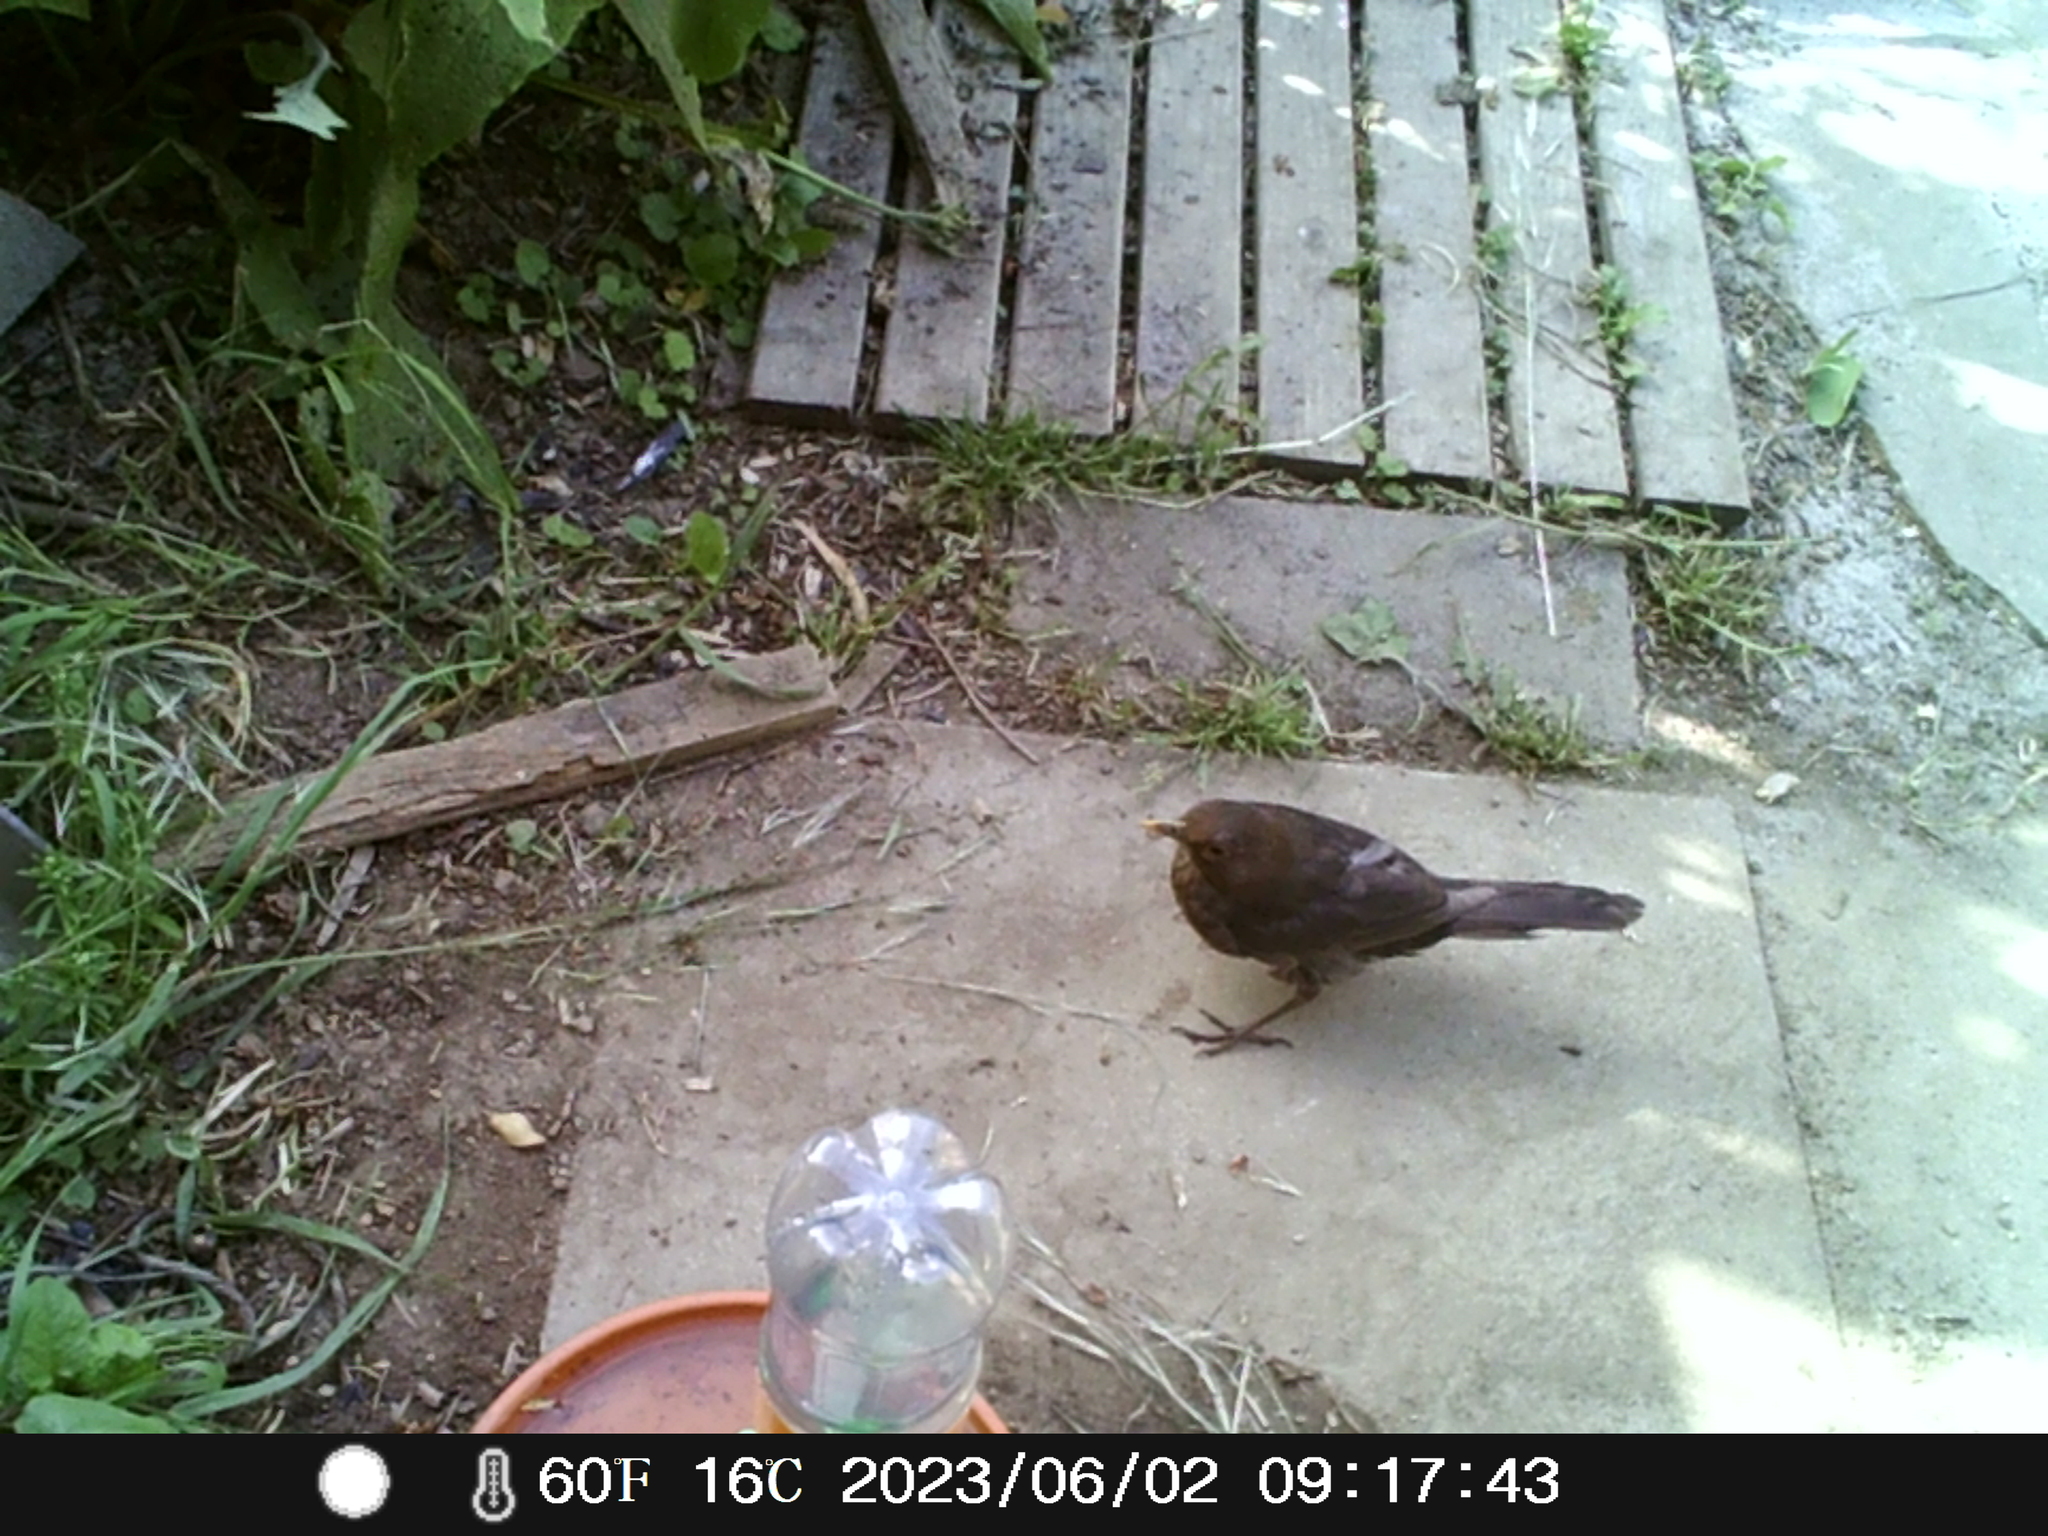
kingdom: Animalia
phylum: Chordata
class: Aves
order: Passeriformes
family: Turdidae
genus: Turdus
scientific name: Turdus merula
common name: Common blackbird
